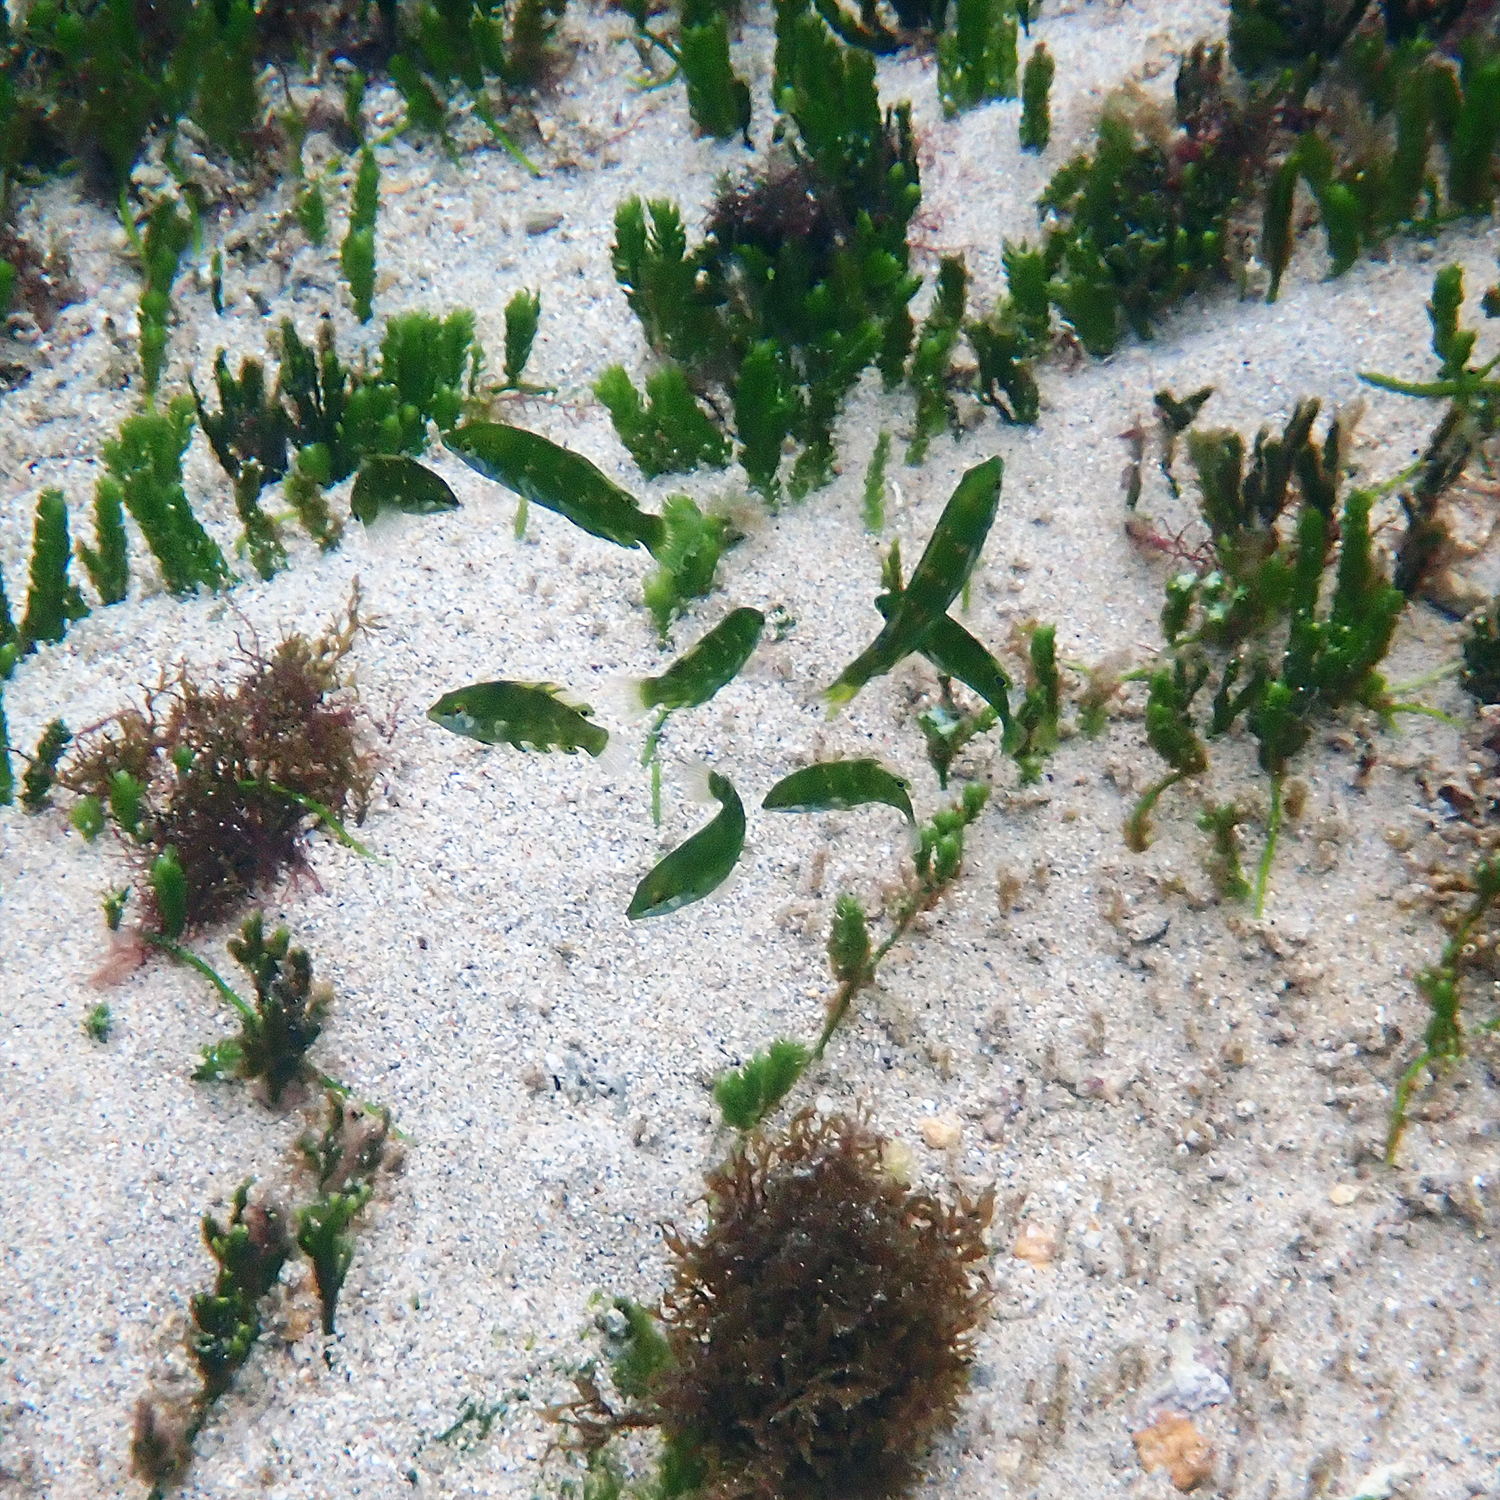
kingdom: Animalia
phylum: Chordata
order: Perciformes
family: Labridae
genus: Anampses
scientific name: Anampses elegans
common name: Elegant wrasse
